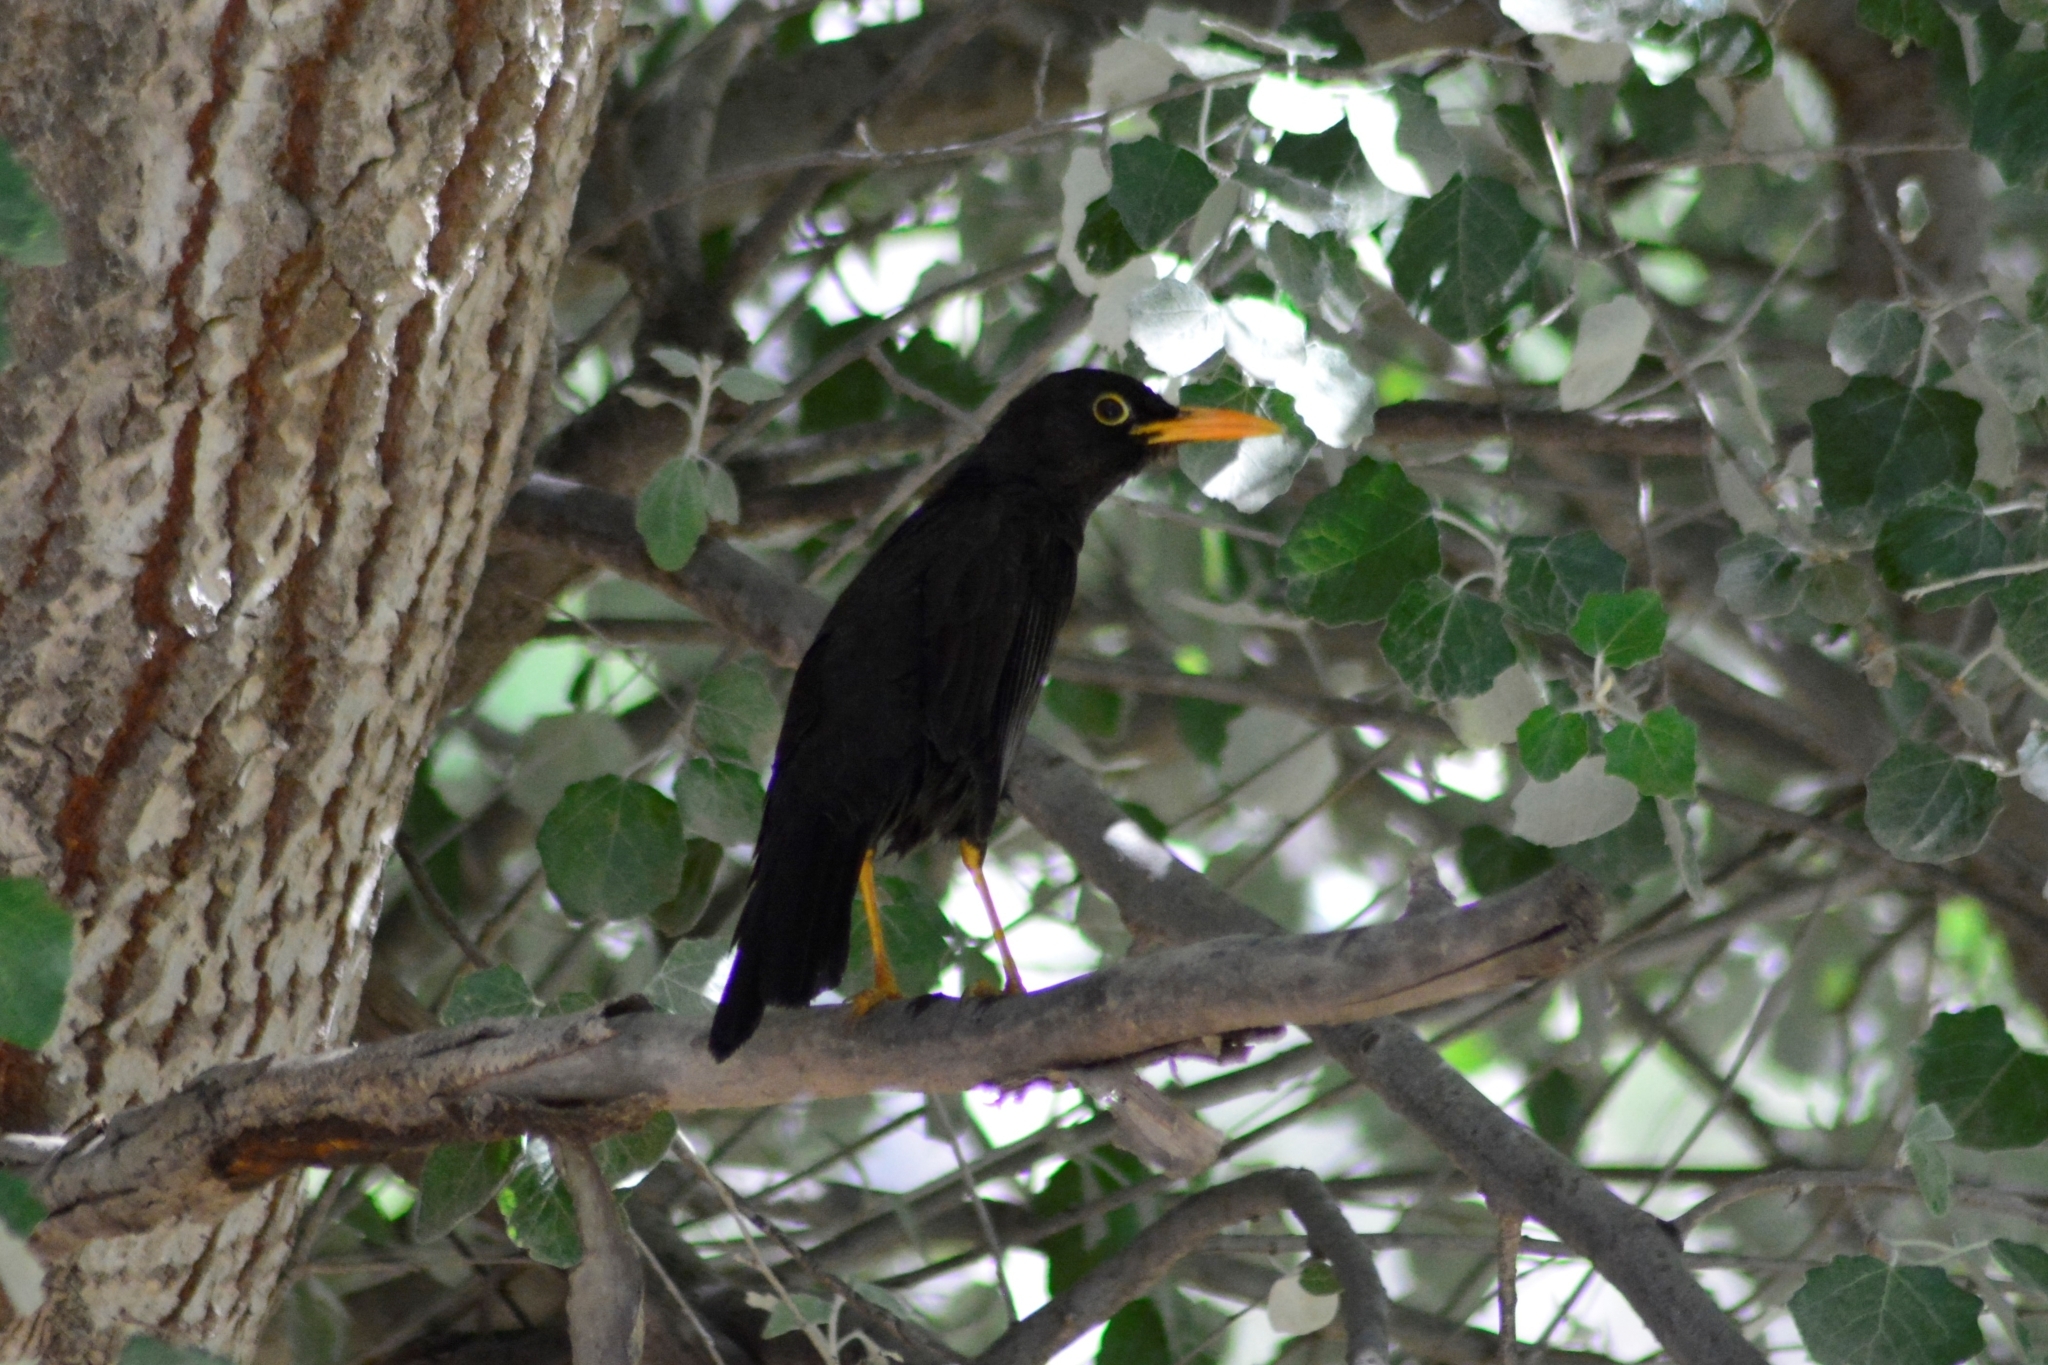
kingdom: Animalia
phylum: Chordata
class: Aves
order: Passeriformes
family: Turdidae
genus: Turdus
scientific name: Turdus chiguanco
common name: Chiguanco thrush
